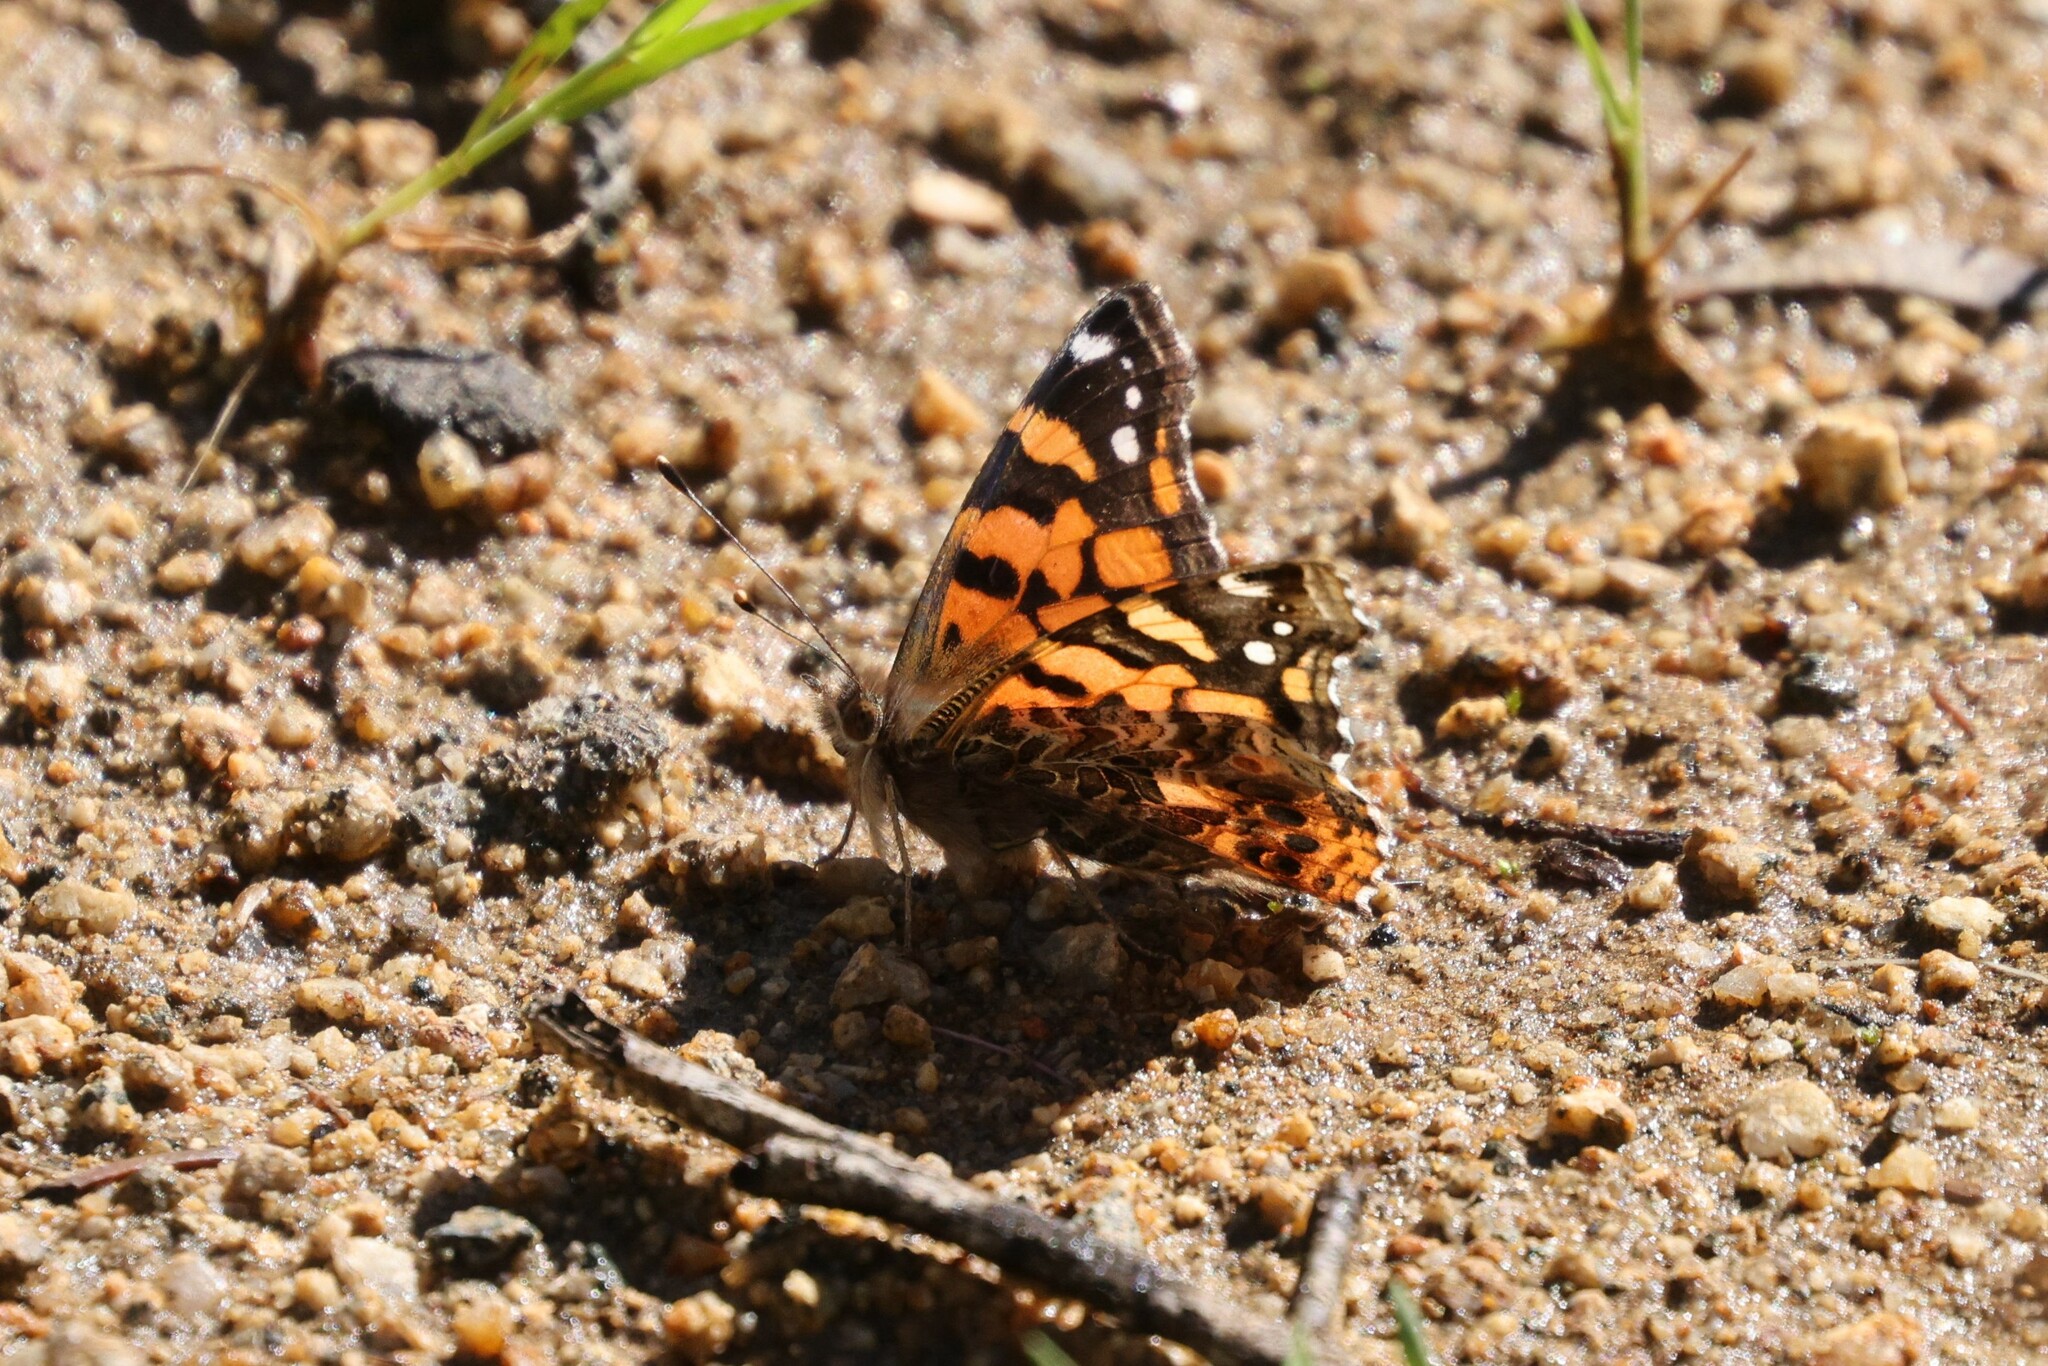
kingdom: Animalia
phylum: Arthropoda
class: Insecta
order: Lepidoptera
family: Nymphalidae
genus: Vanessa
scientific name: Vanessa carye
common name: Subtropical lady
